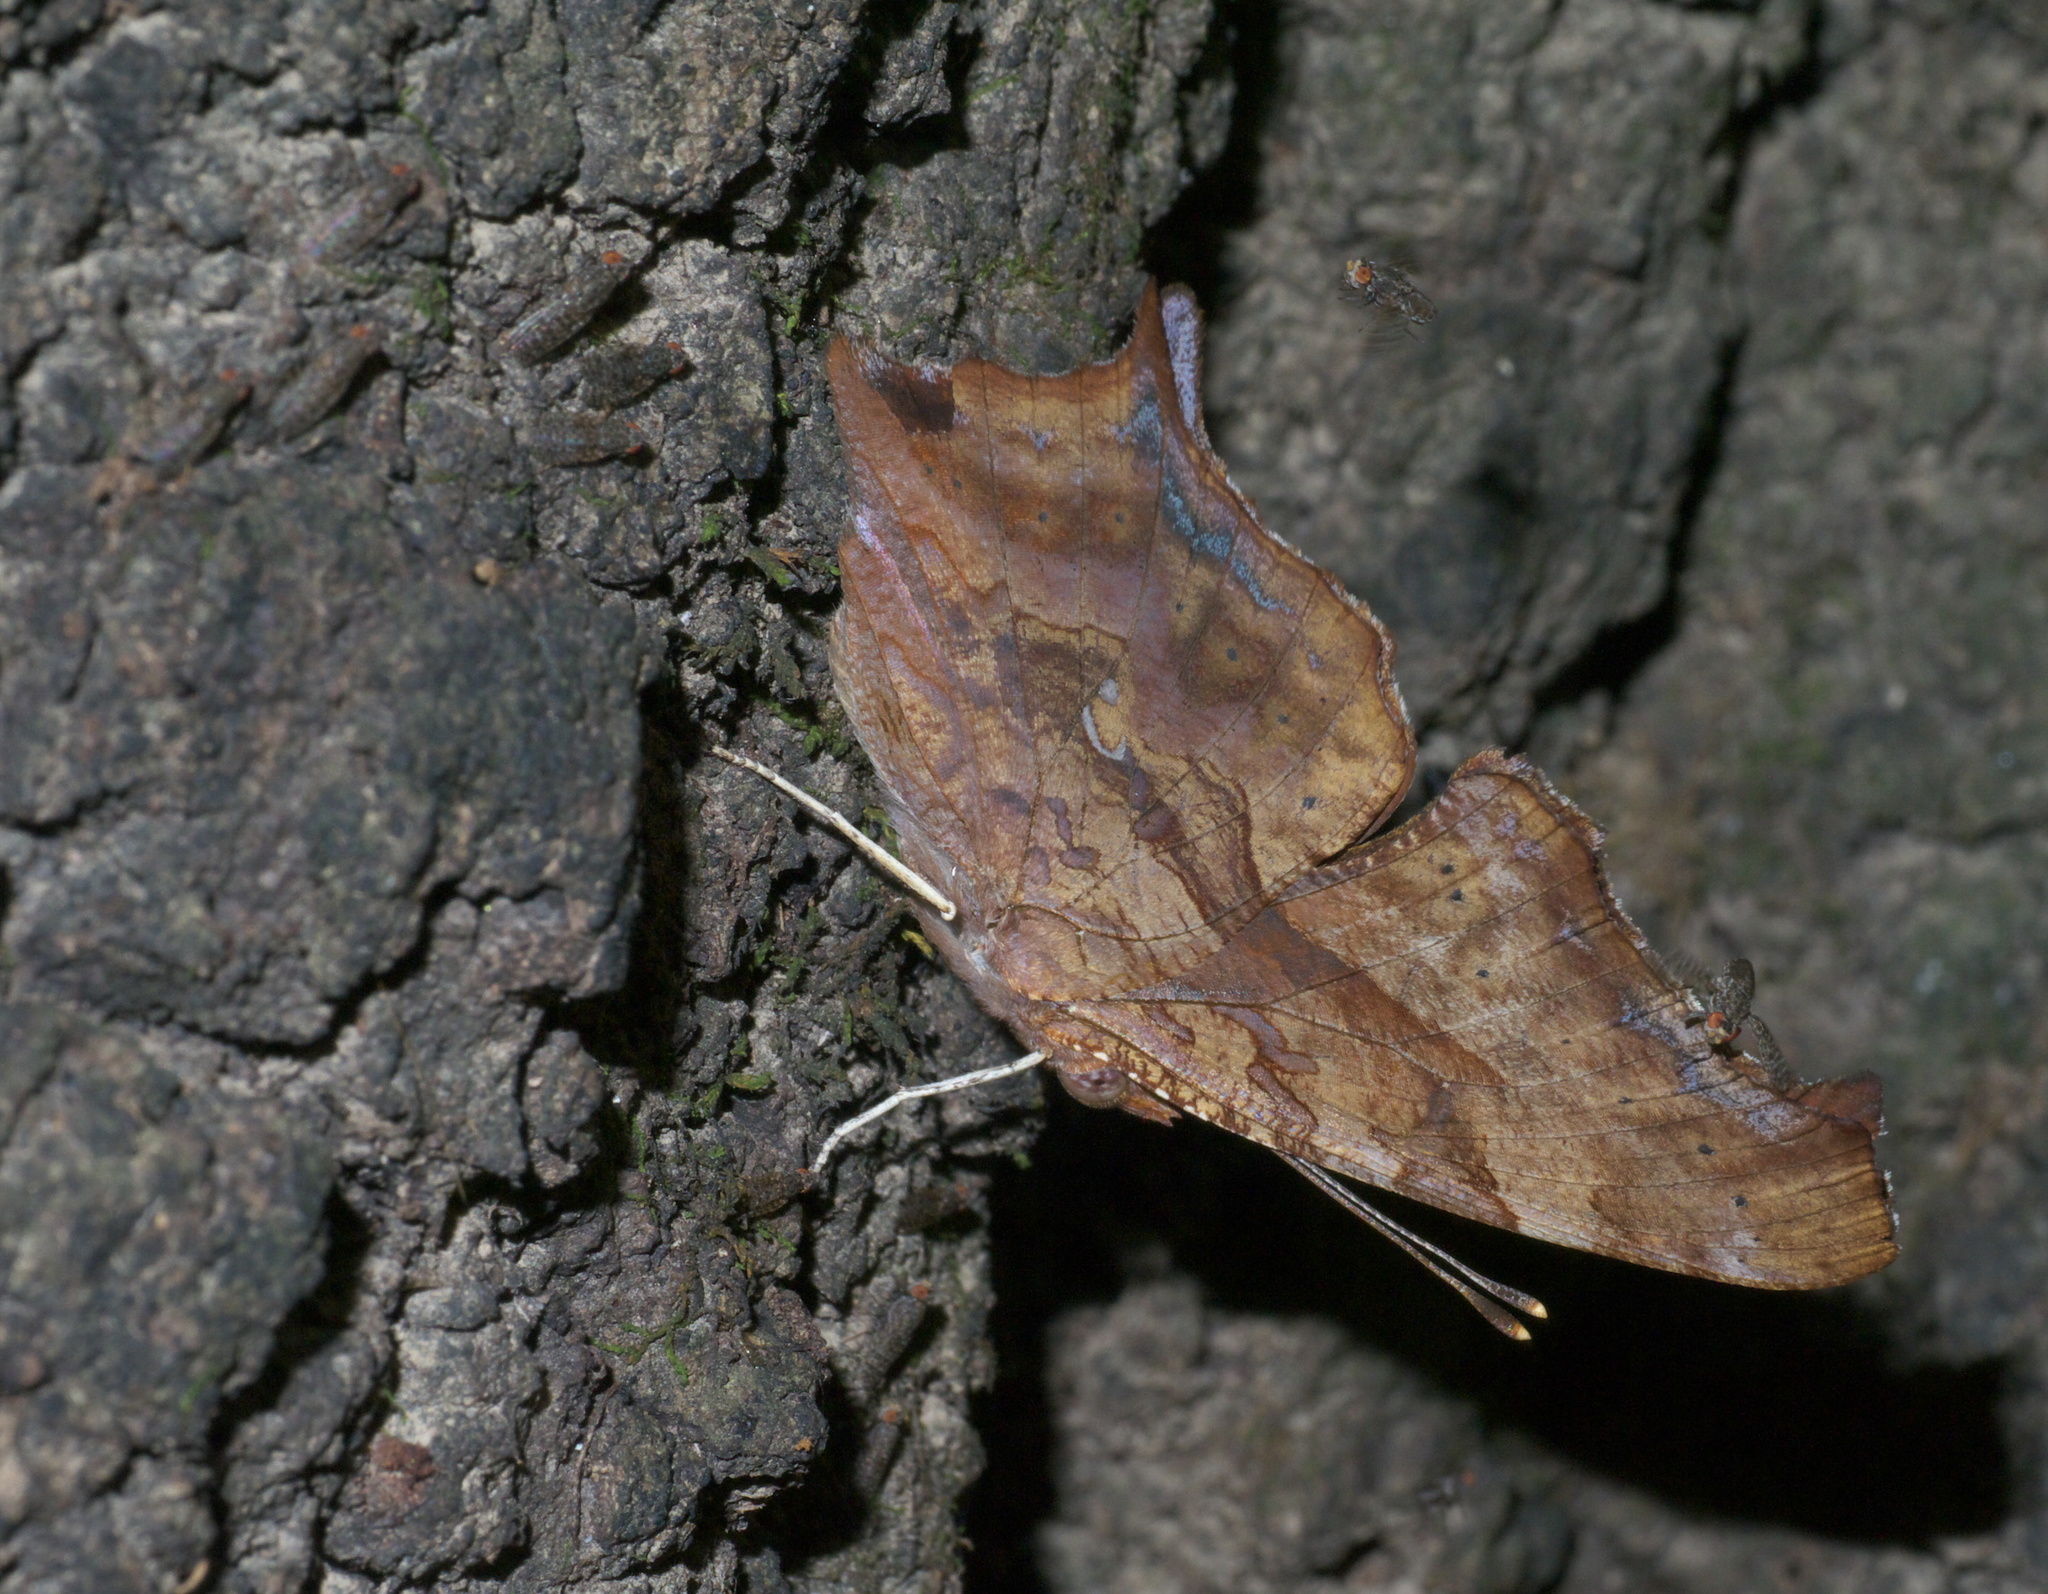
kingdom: Animalia
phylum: Arthropoda
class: Insecta
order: Lepidoptera
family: Nymphalidae
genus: Polygonia
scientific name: Polygonia interrogationis
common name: Question mark
